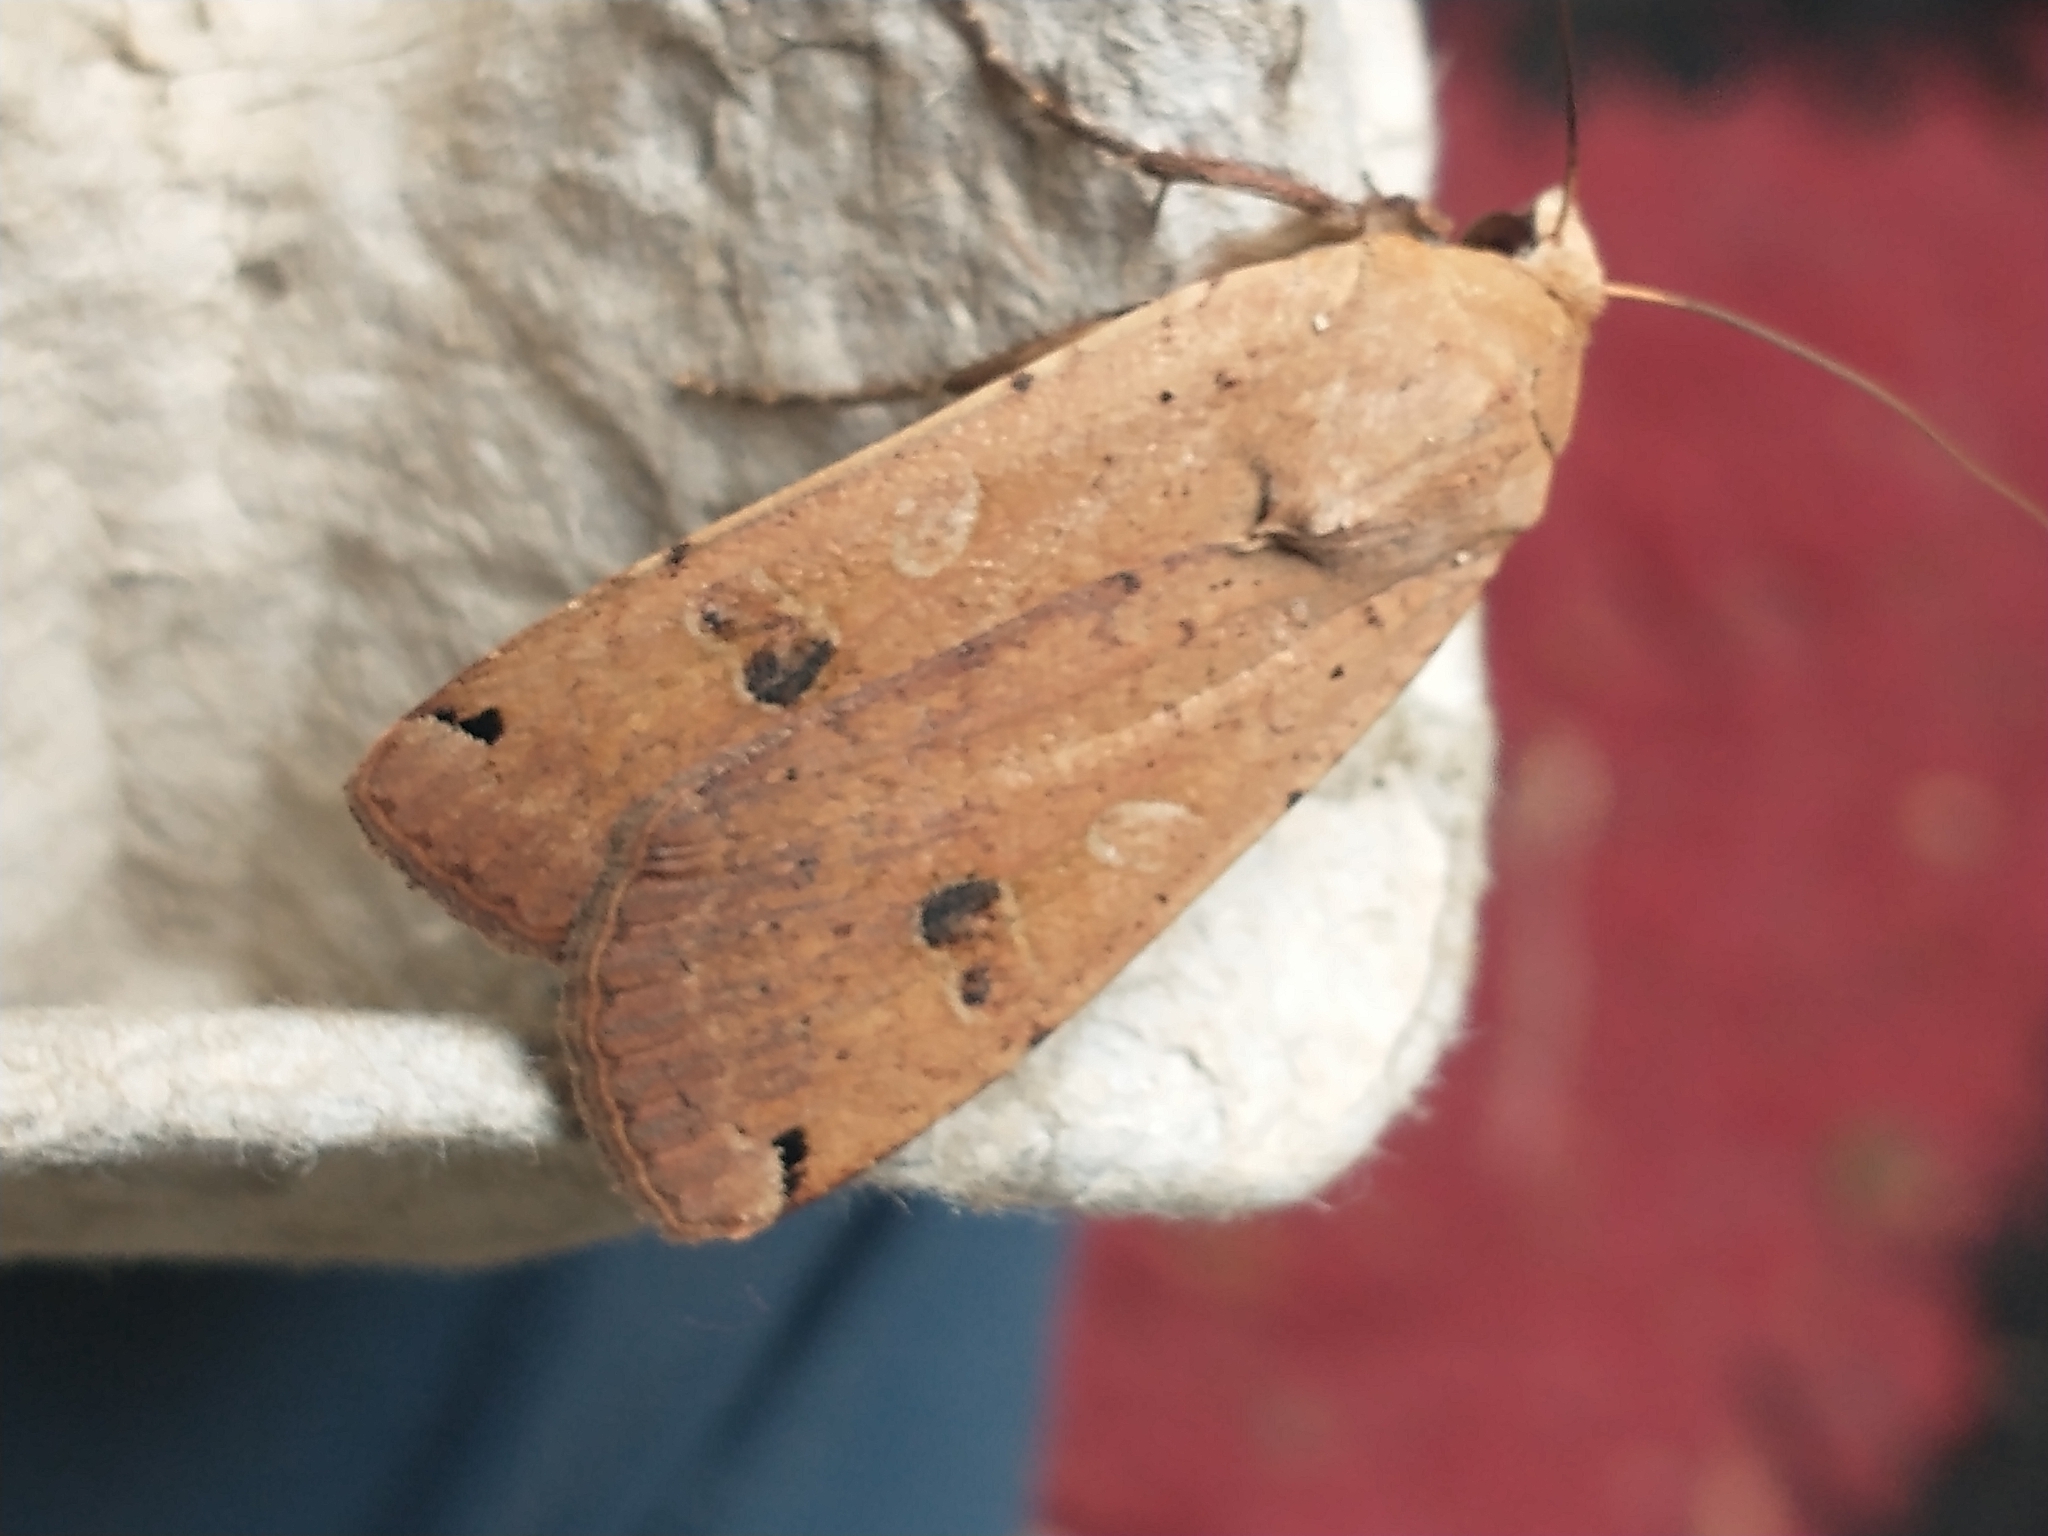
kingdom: Animalia
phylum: Arthropoda
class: Insecta
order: Lepidoptera
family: Noctuidae
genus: Noctua
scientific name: Noctua pronuba
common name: Large yellow underwing
